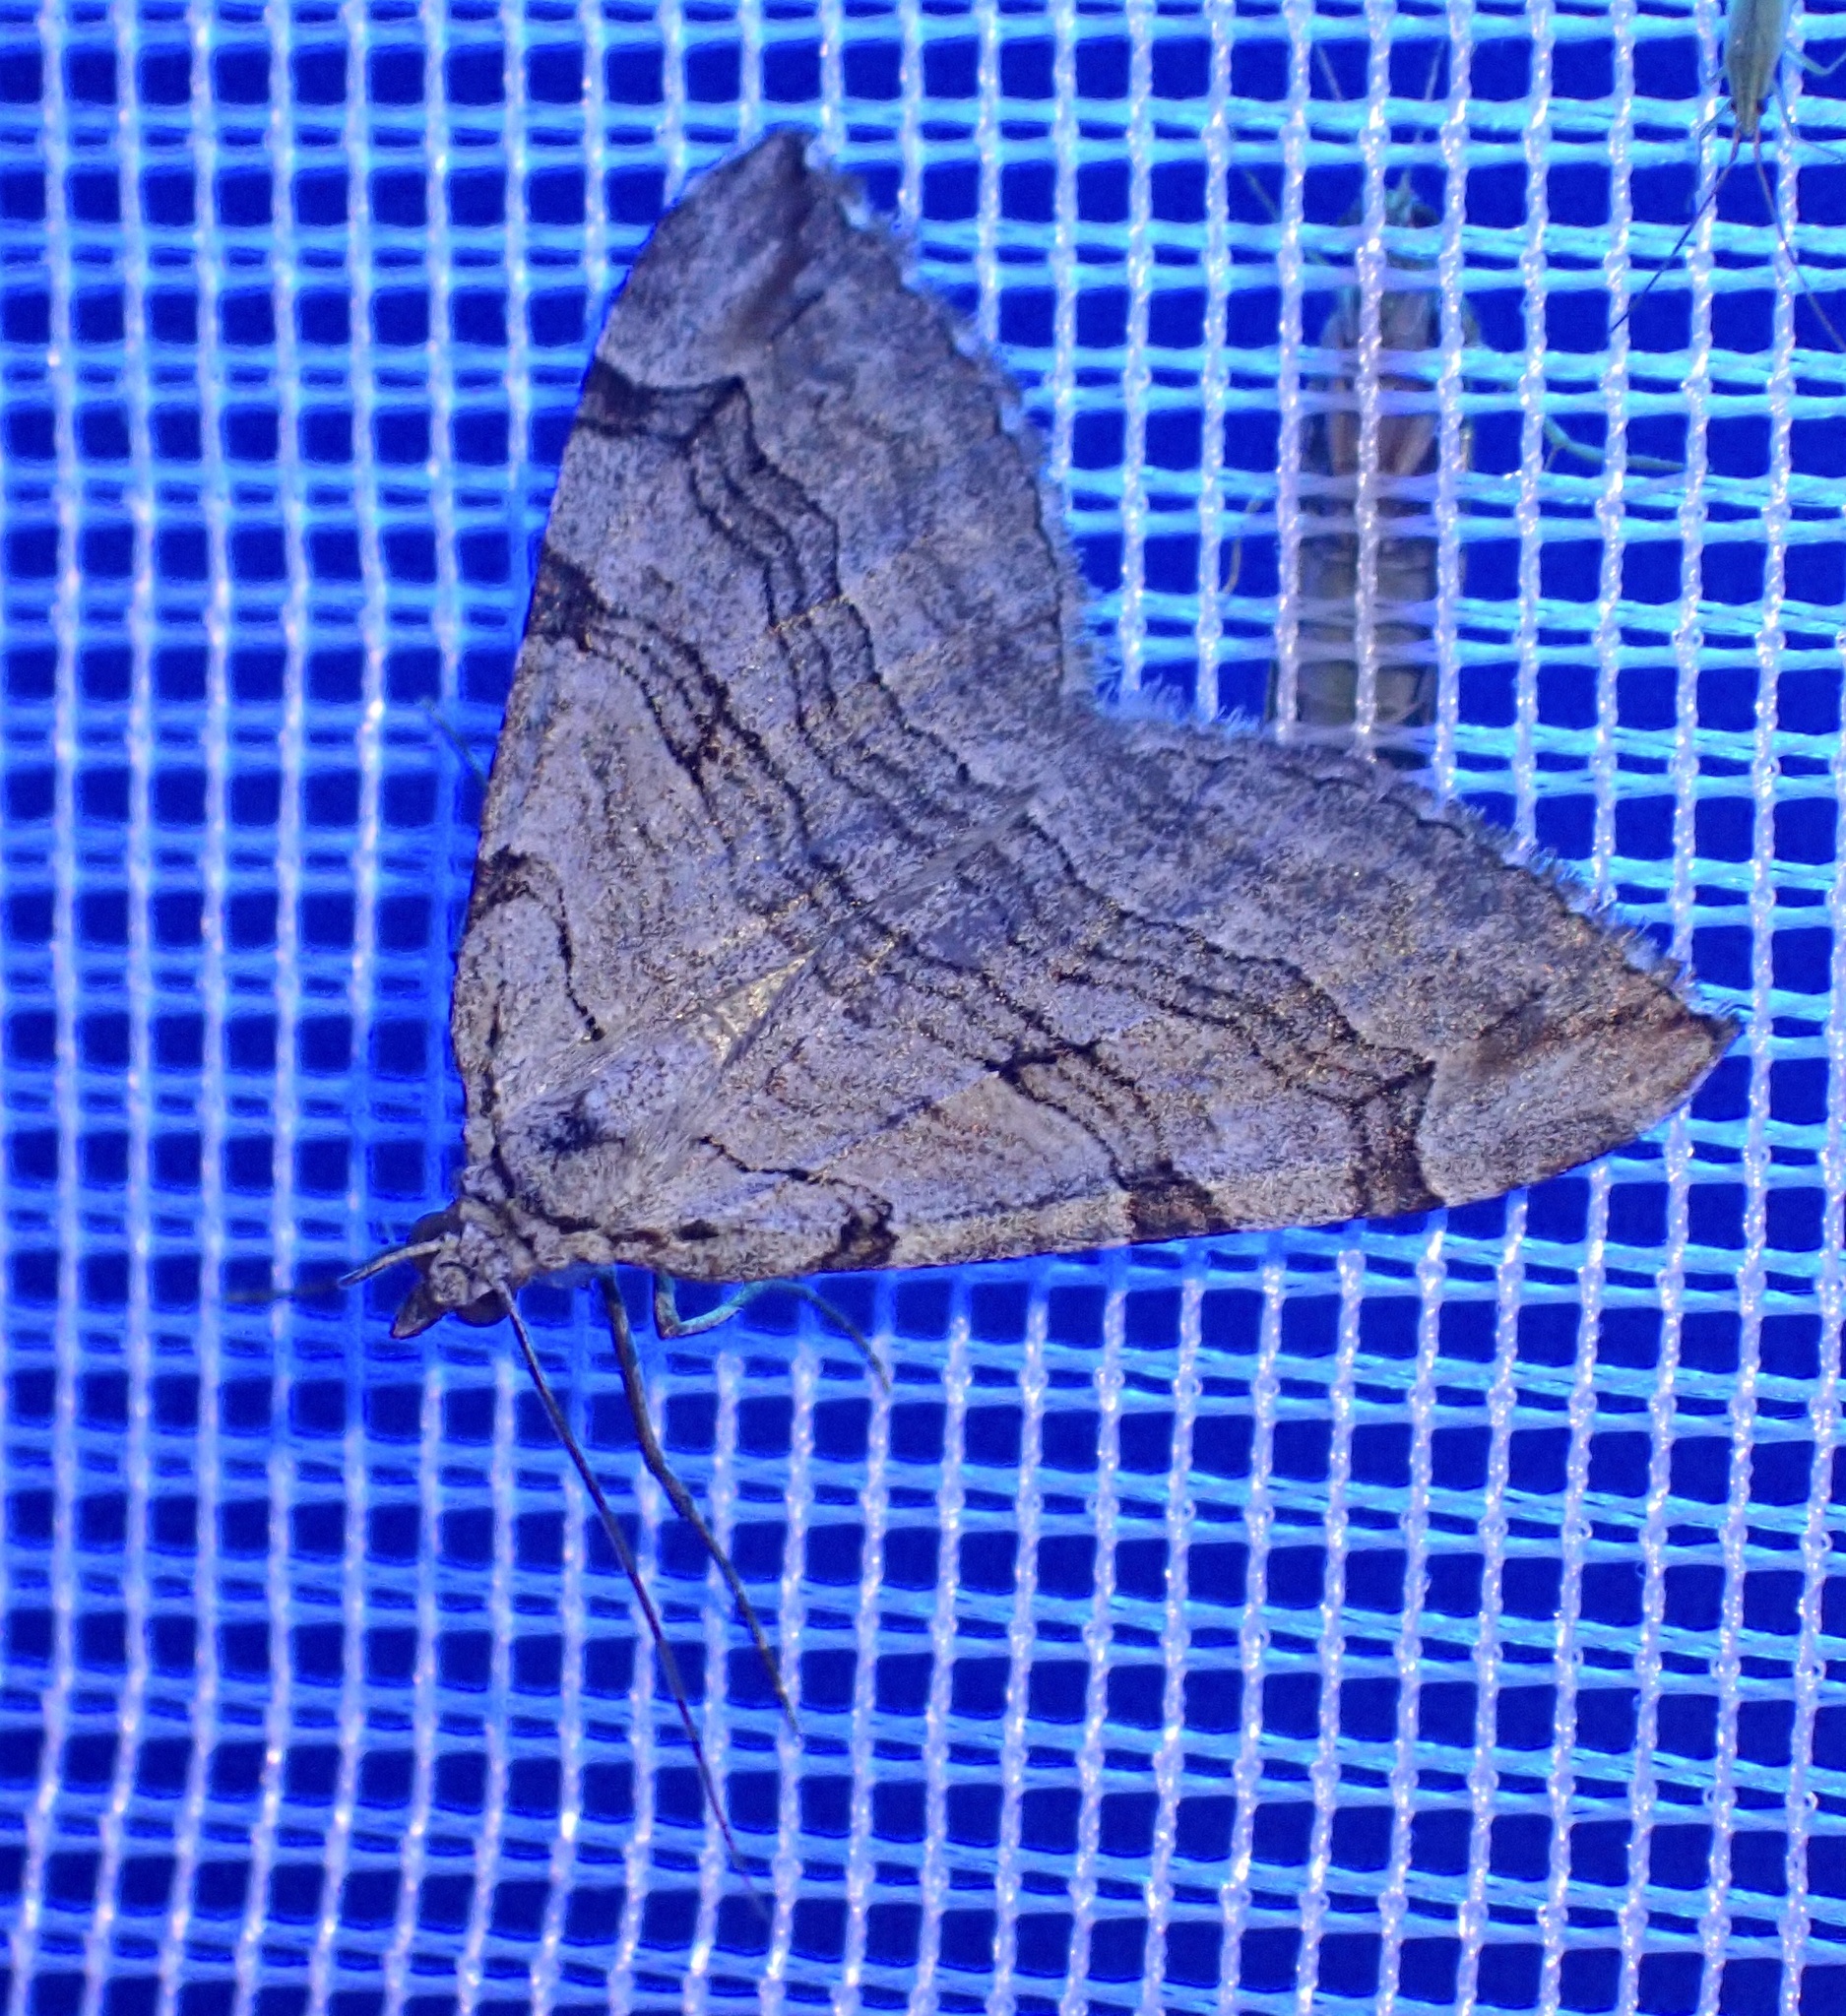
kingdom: Animalia
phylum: Arthropoda
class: Insecta
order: Lepidoptera
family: Geometridae
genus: Aplocera
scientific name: Aplocera plagiata
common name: Treble-bar
